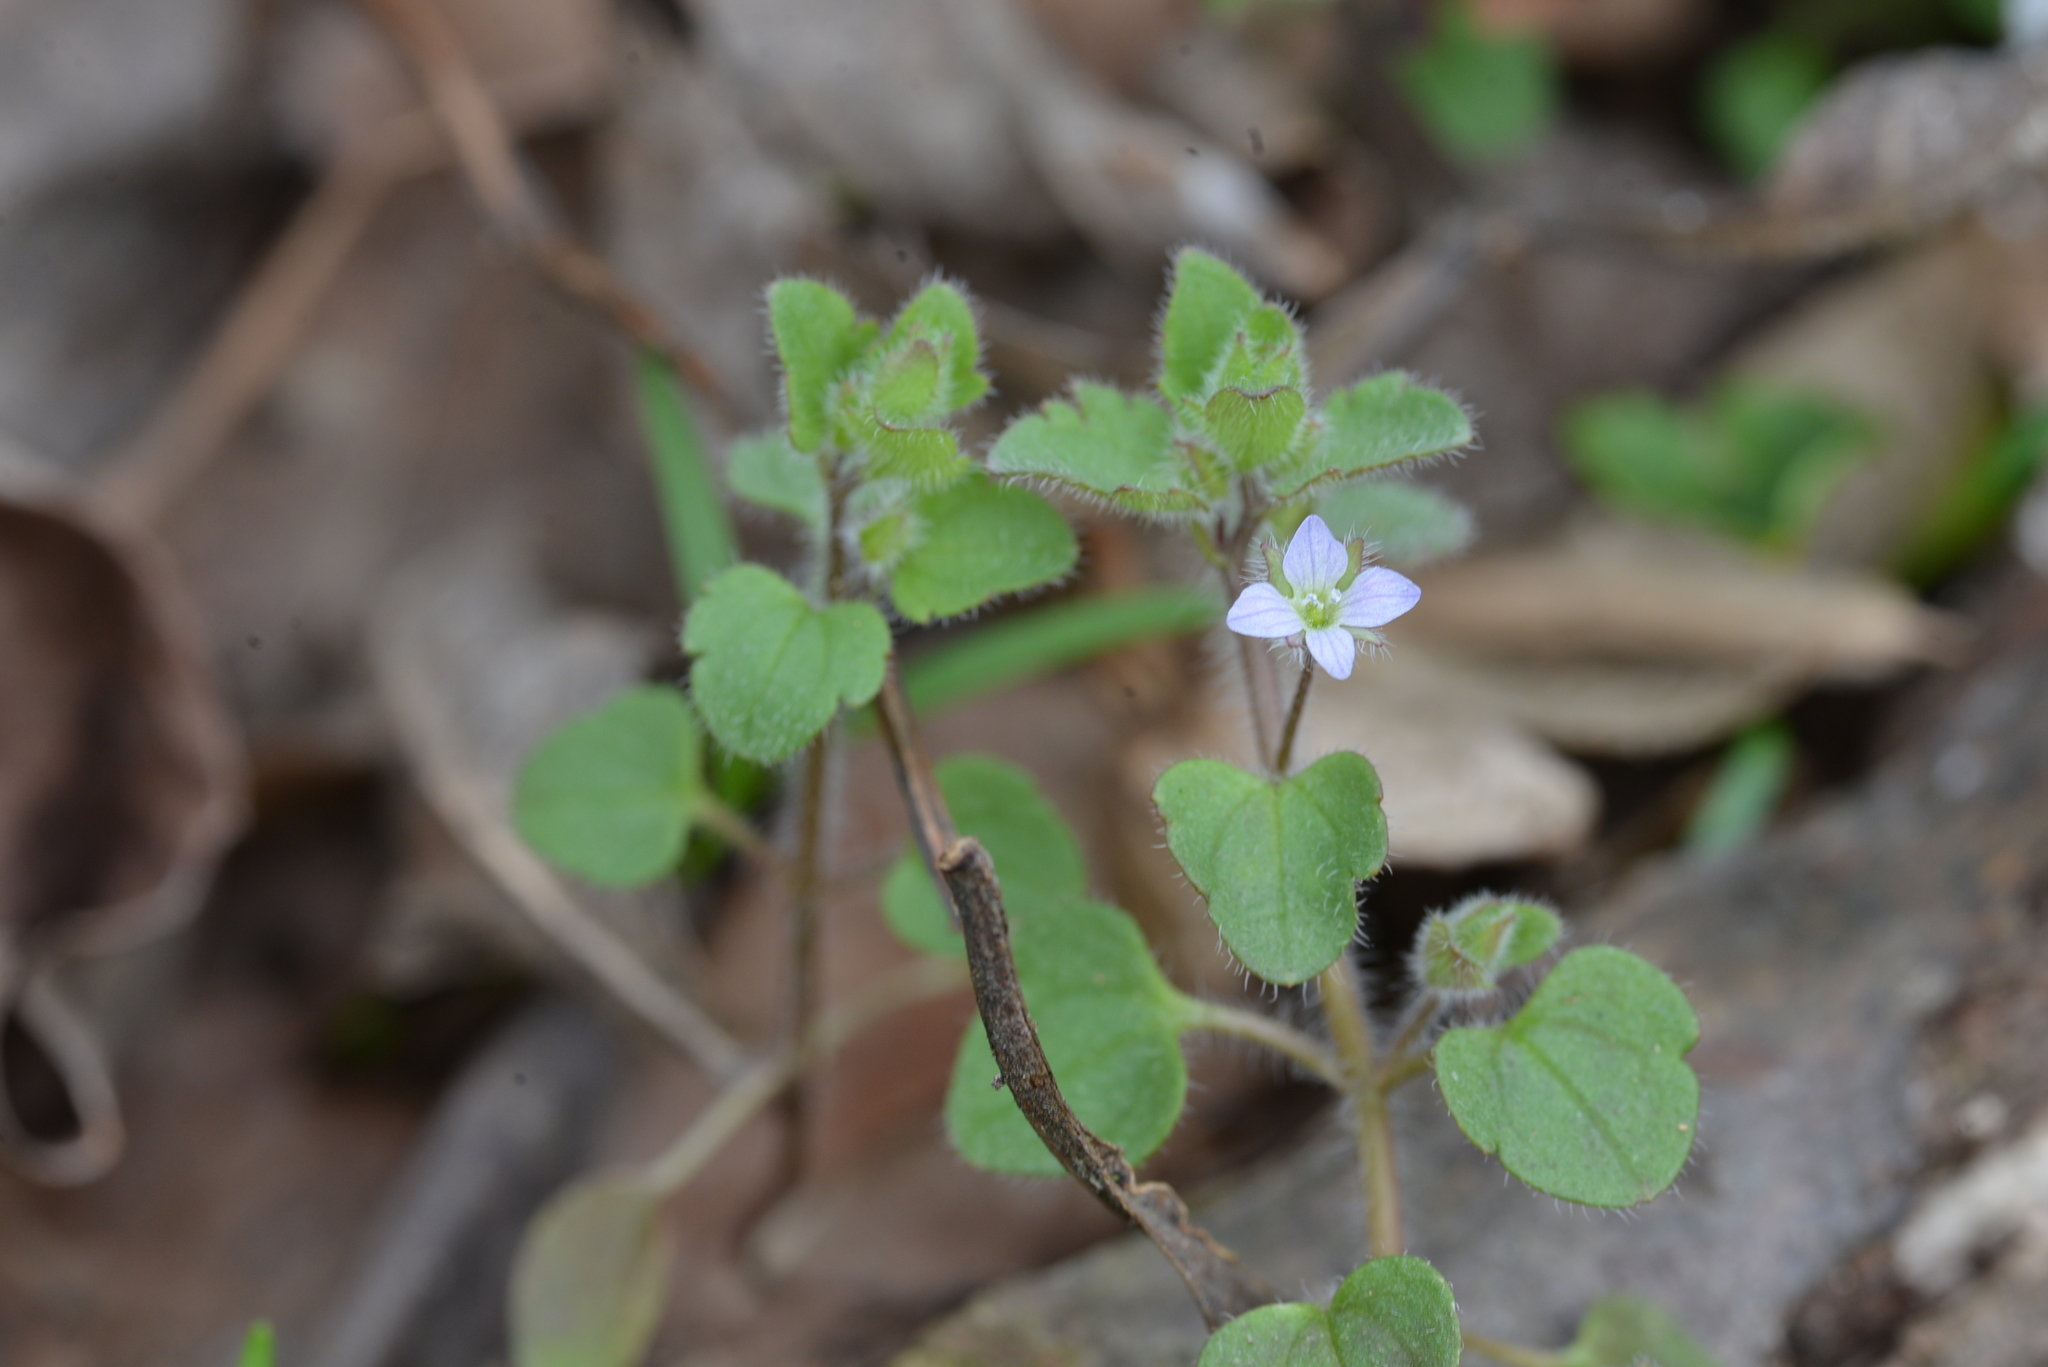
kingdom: Plantae
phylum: Tracheophyta
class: Magnoliopsida
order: Lamiales
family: Plantaginaceae
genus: Veronica
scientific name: Veronica sublobata
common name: False ivy-leaved speedwell
